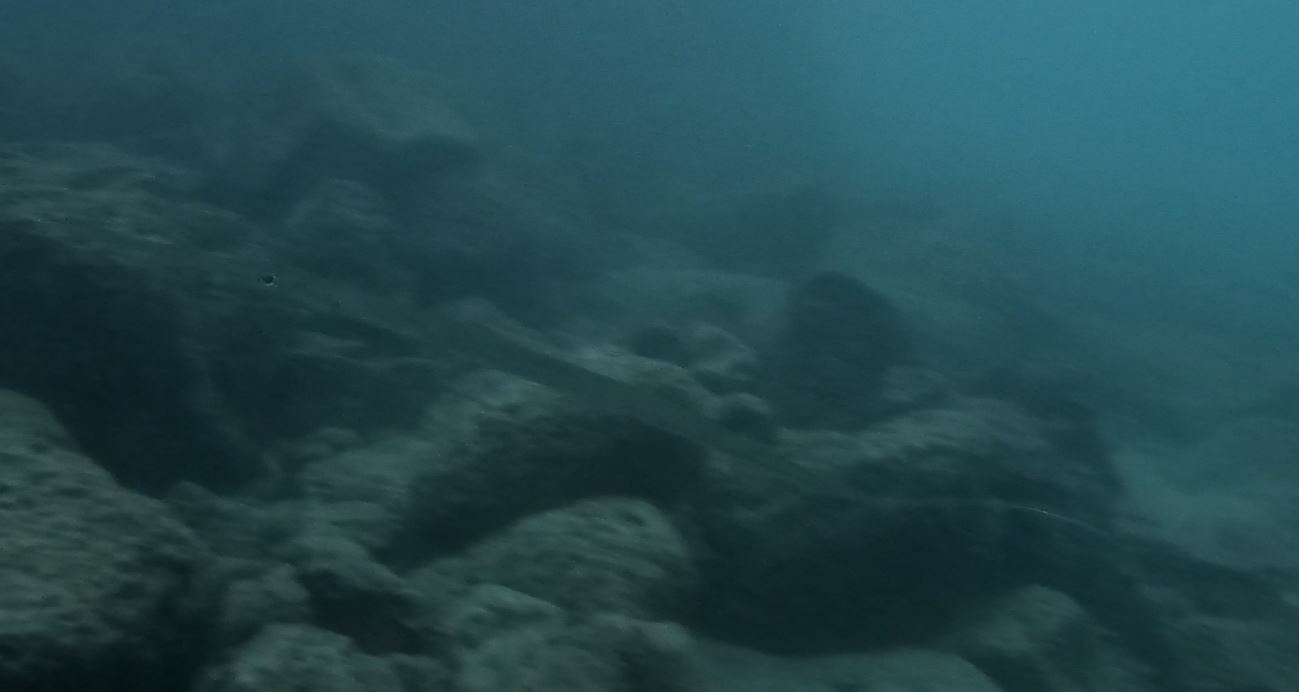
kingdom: Animalia
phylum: Chordata
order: Syngnathiformes
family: Fistulariidae
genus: Fistularia
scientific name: Fistularia commersonii
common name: Bluespotted cornetfish
